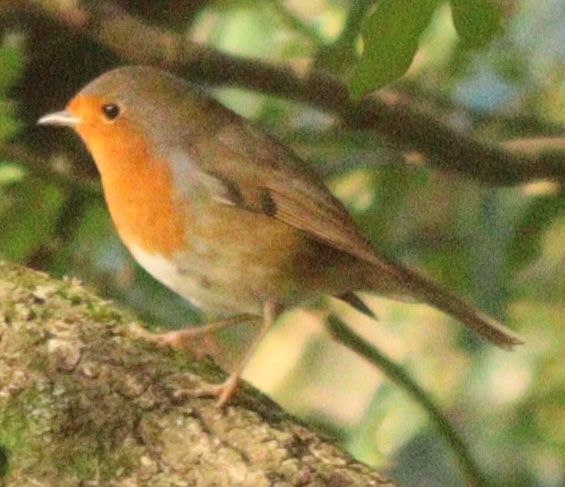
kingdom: Animalia
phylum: Chordata
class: Aves
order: Passeriformes
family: Muscicapidae
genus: Erithacus
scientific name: Erithacus rubecula
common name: European robin
